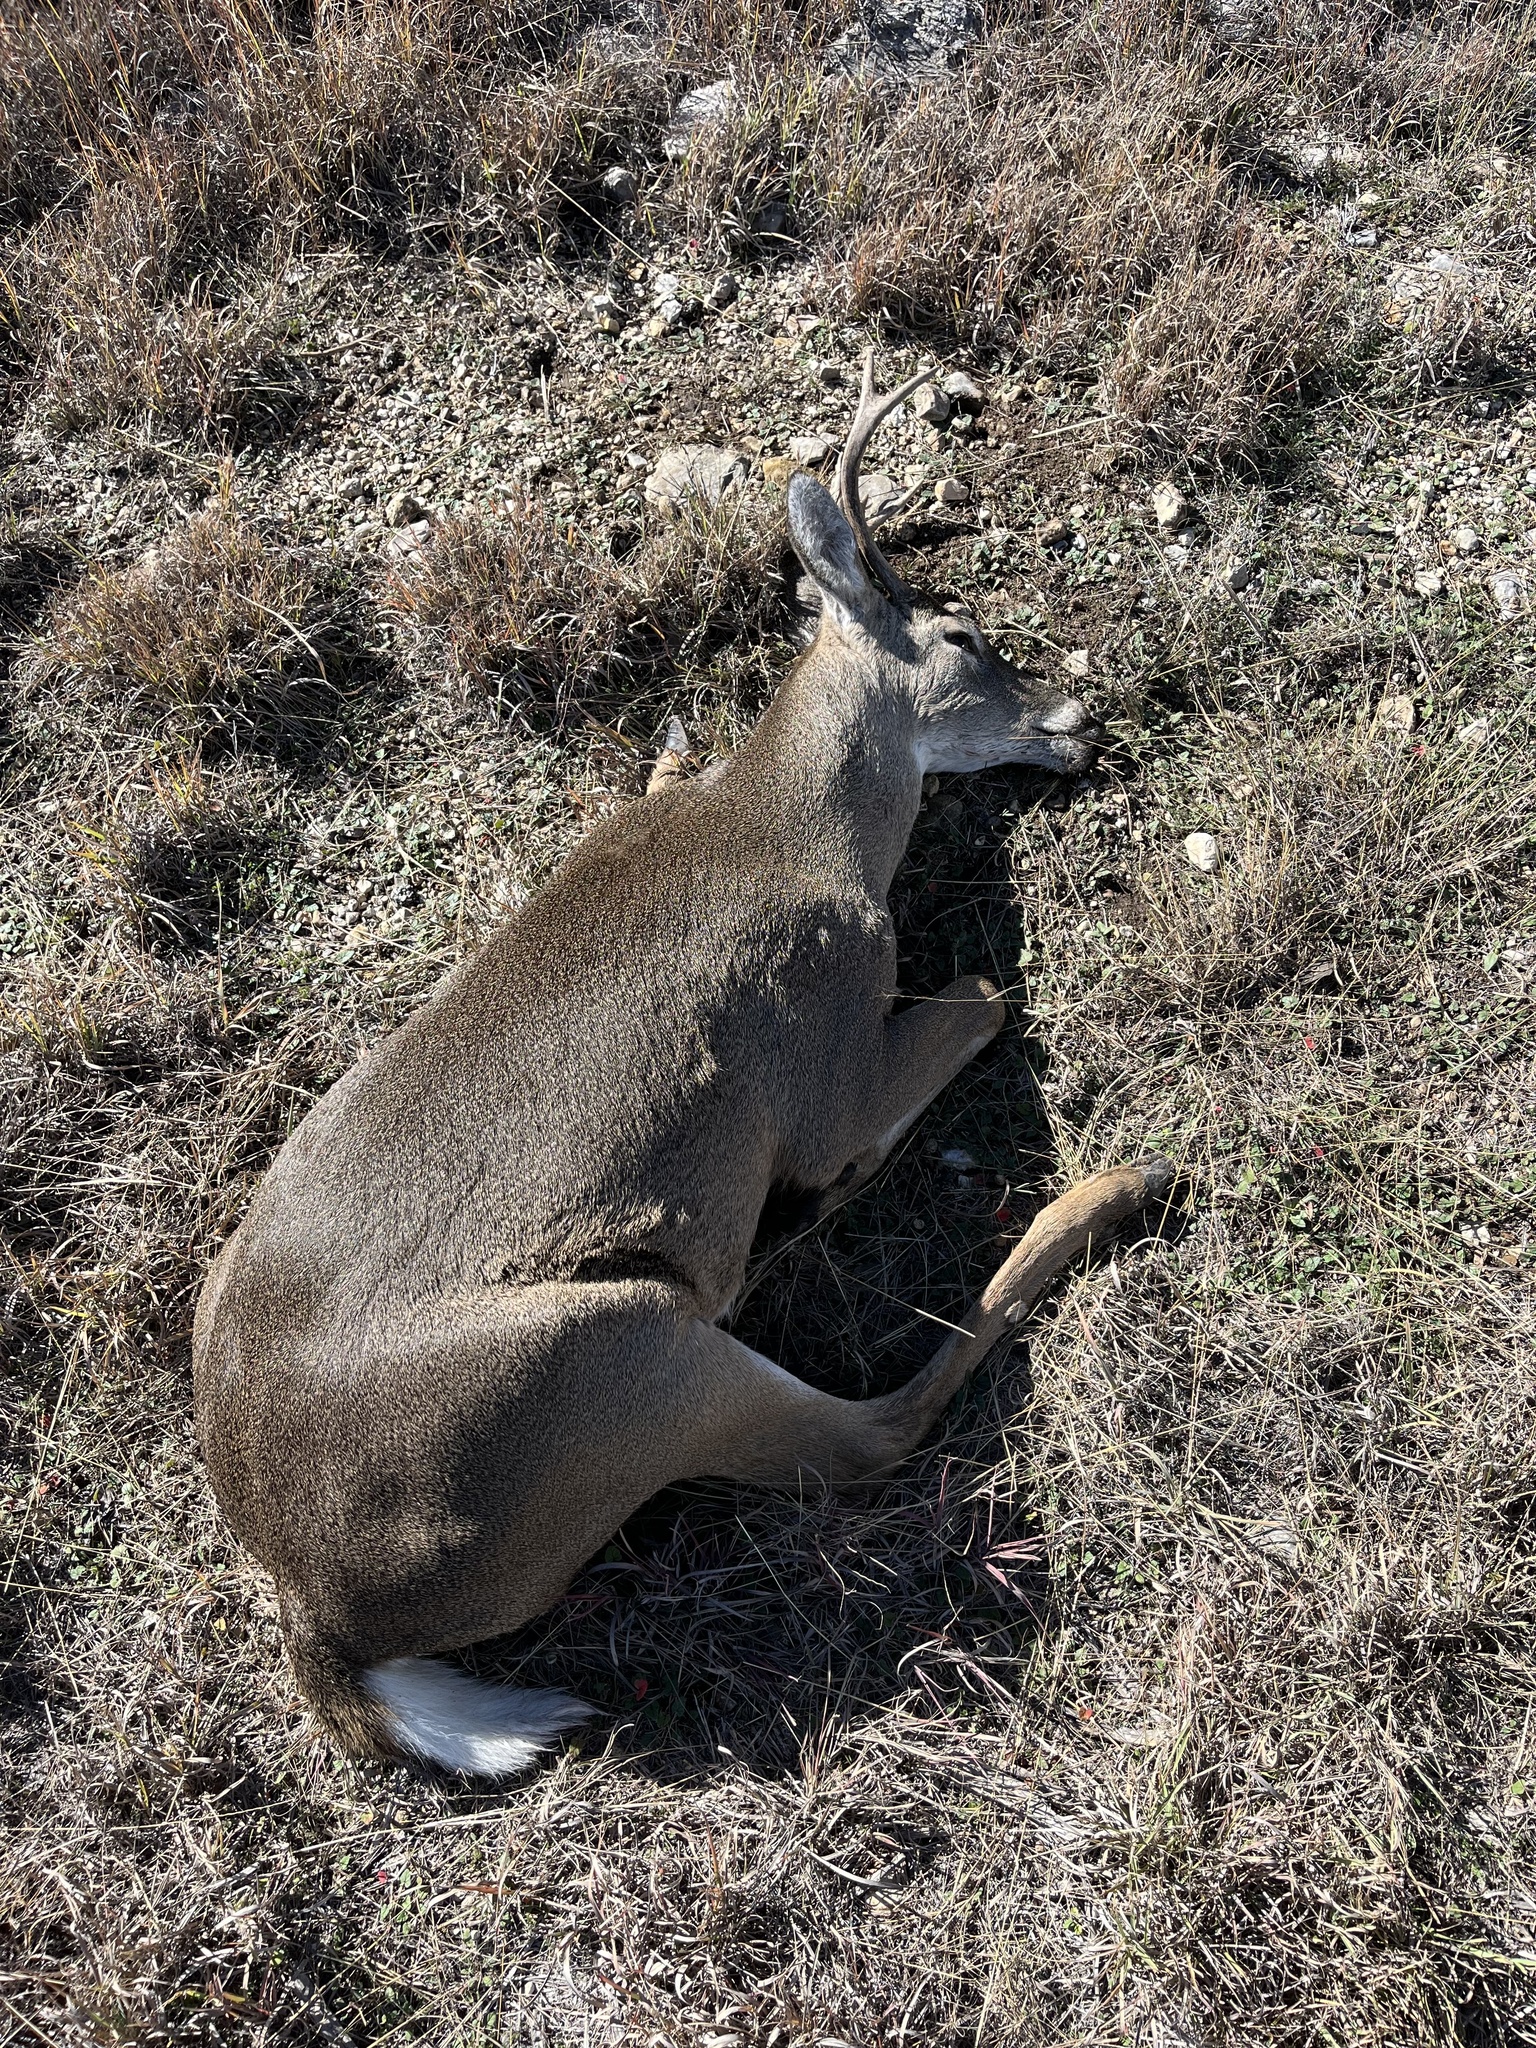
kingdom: Animalia
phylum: Chordata
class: Mammalia
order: Artiodactyla
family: Cervidae
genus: Odocoileus
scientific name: Odocoileus virginianus
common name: White-tailed deer
